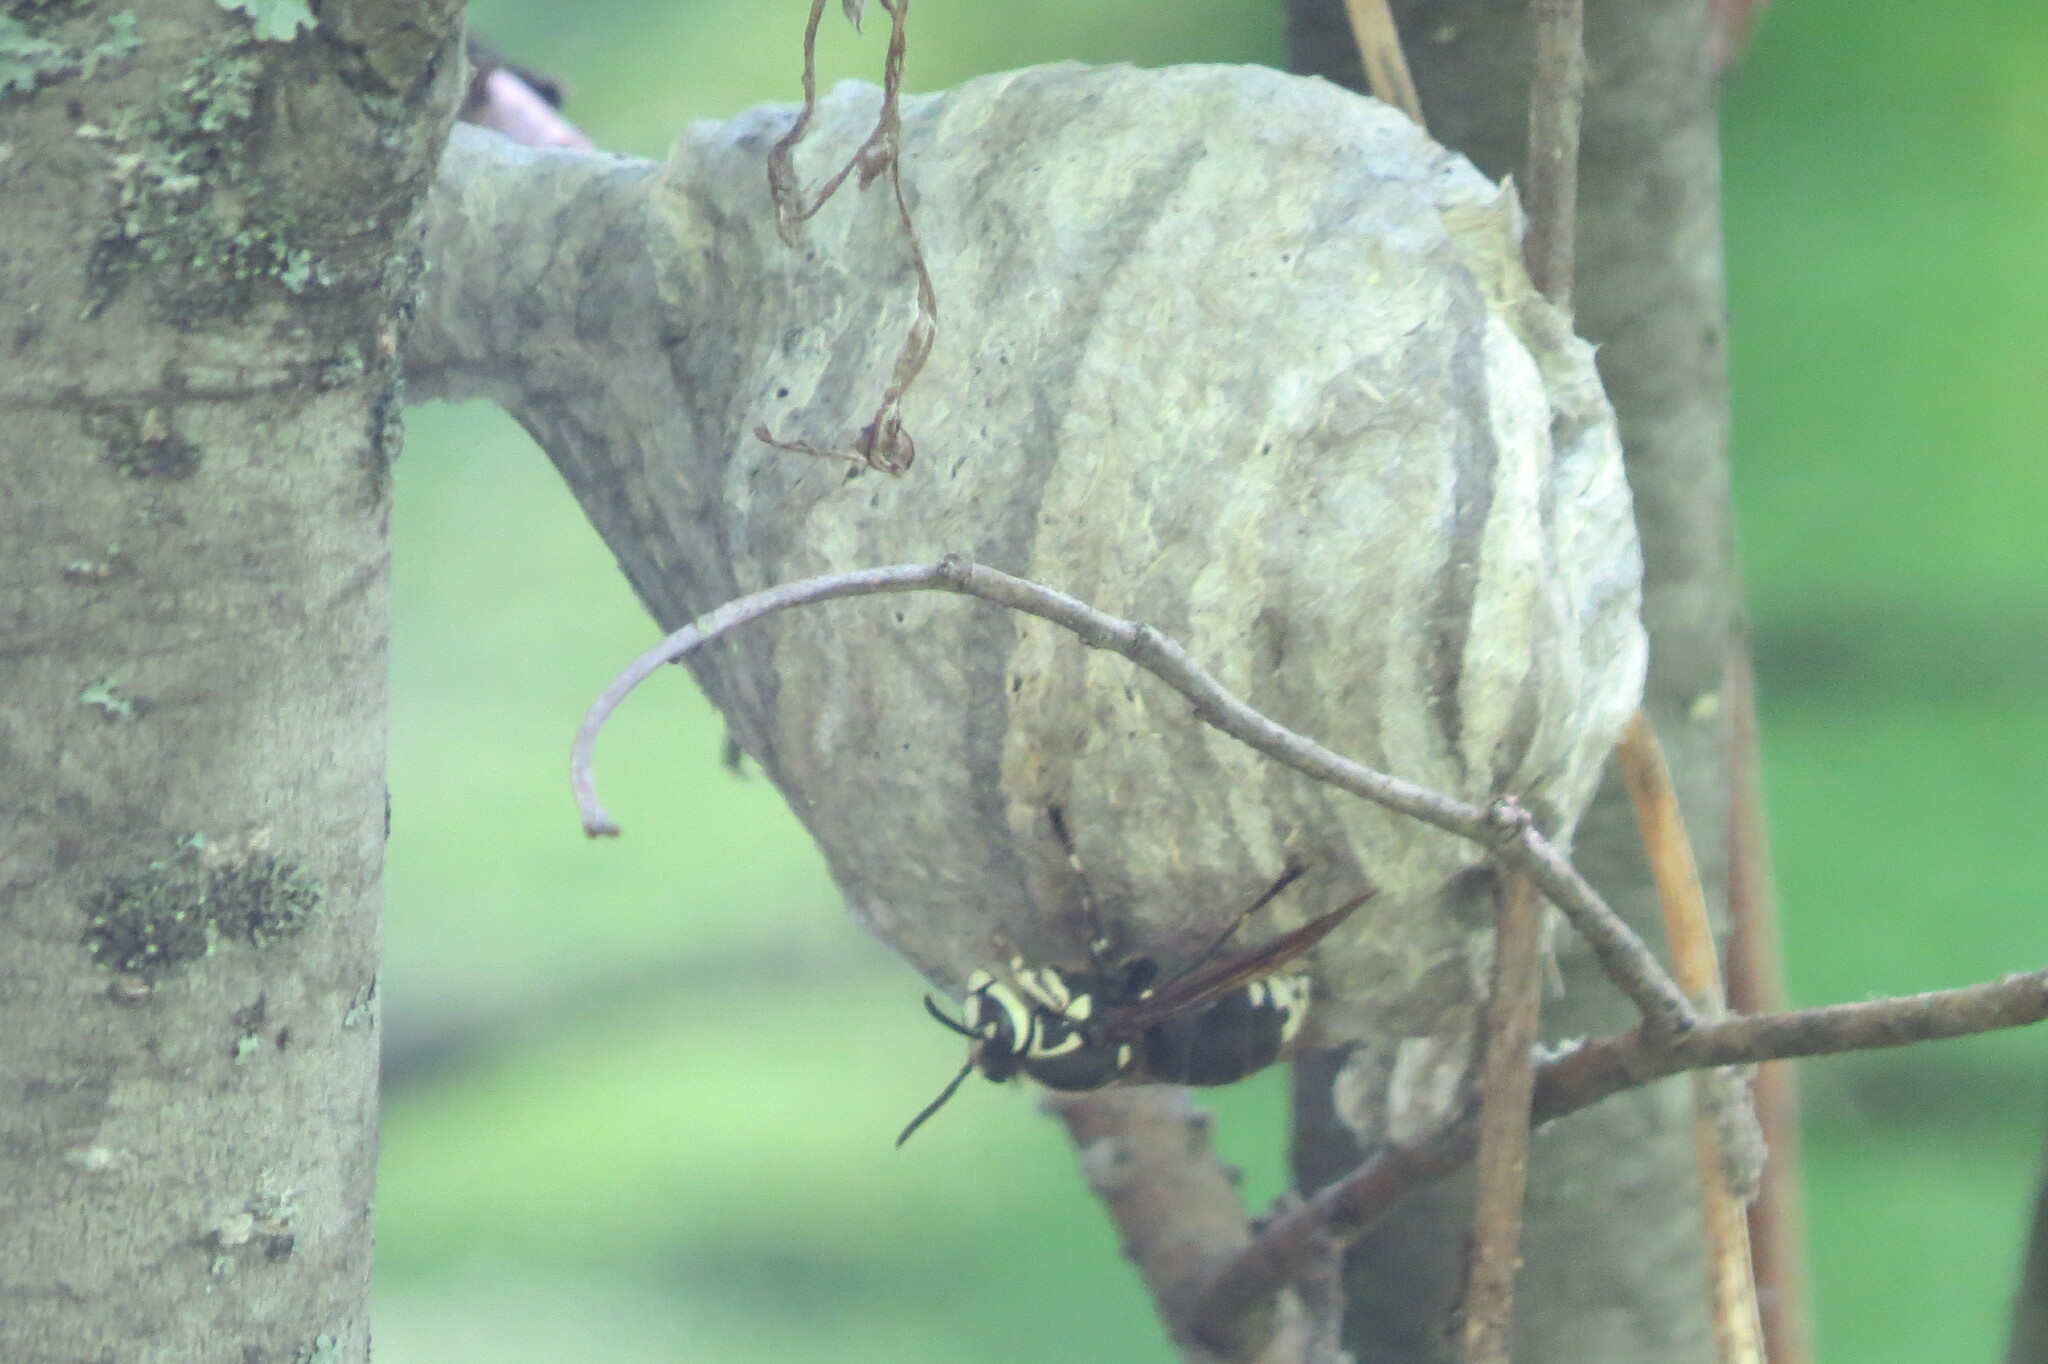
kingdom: Animalia
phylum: Arthropoda
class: Insecta
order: Hymenoptera
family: Vespidae
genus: Dolichovespula
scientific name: Dolichovespula maculata
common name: Bald-faced hornet
